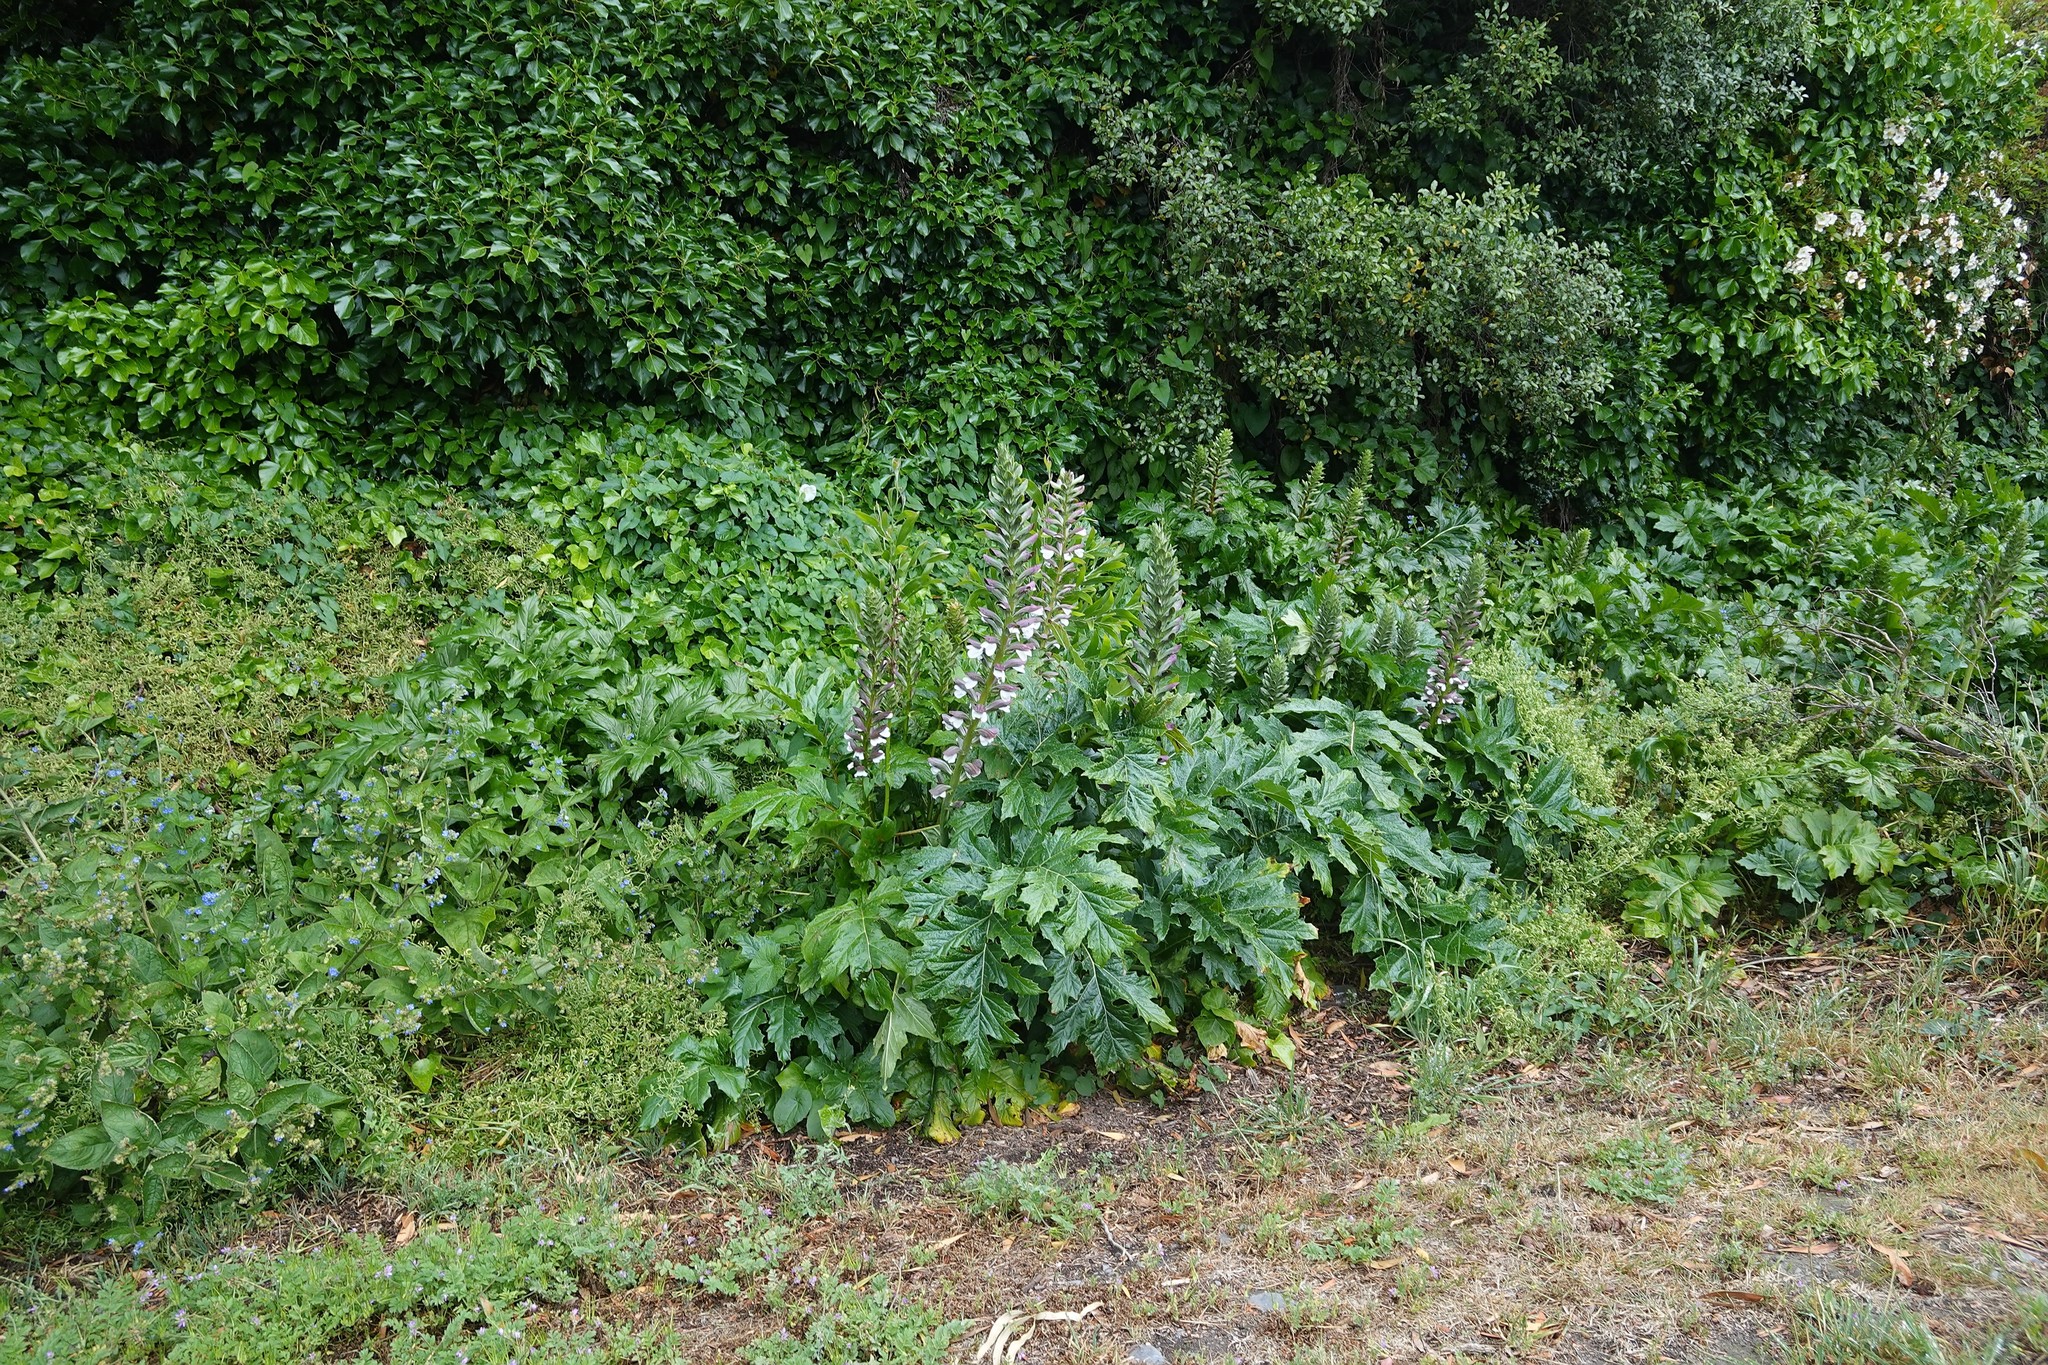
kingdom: Plantae
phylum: Tracheophyta
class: Magnoliopsida
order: Lamiales
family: Acanthaceae
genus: Acanthus
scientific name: Acanthus mollis
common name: Bear's-breech
